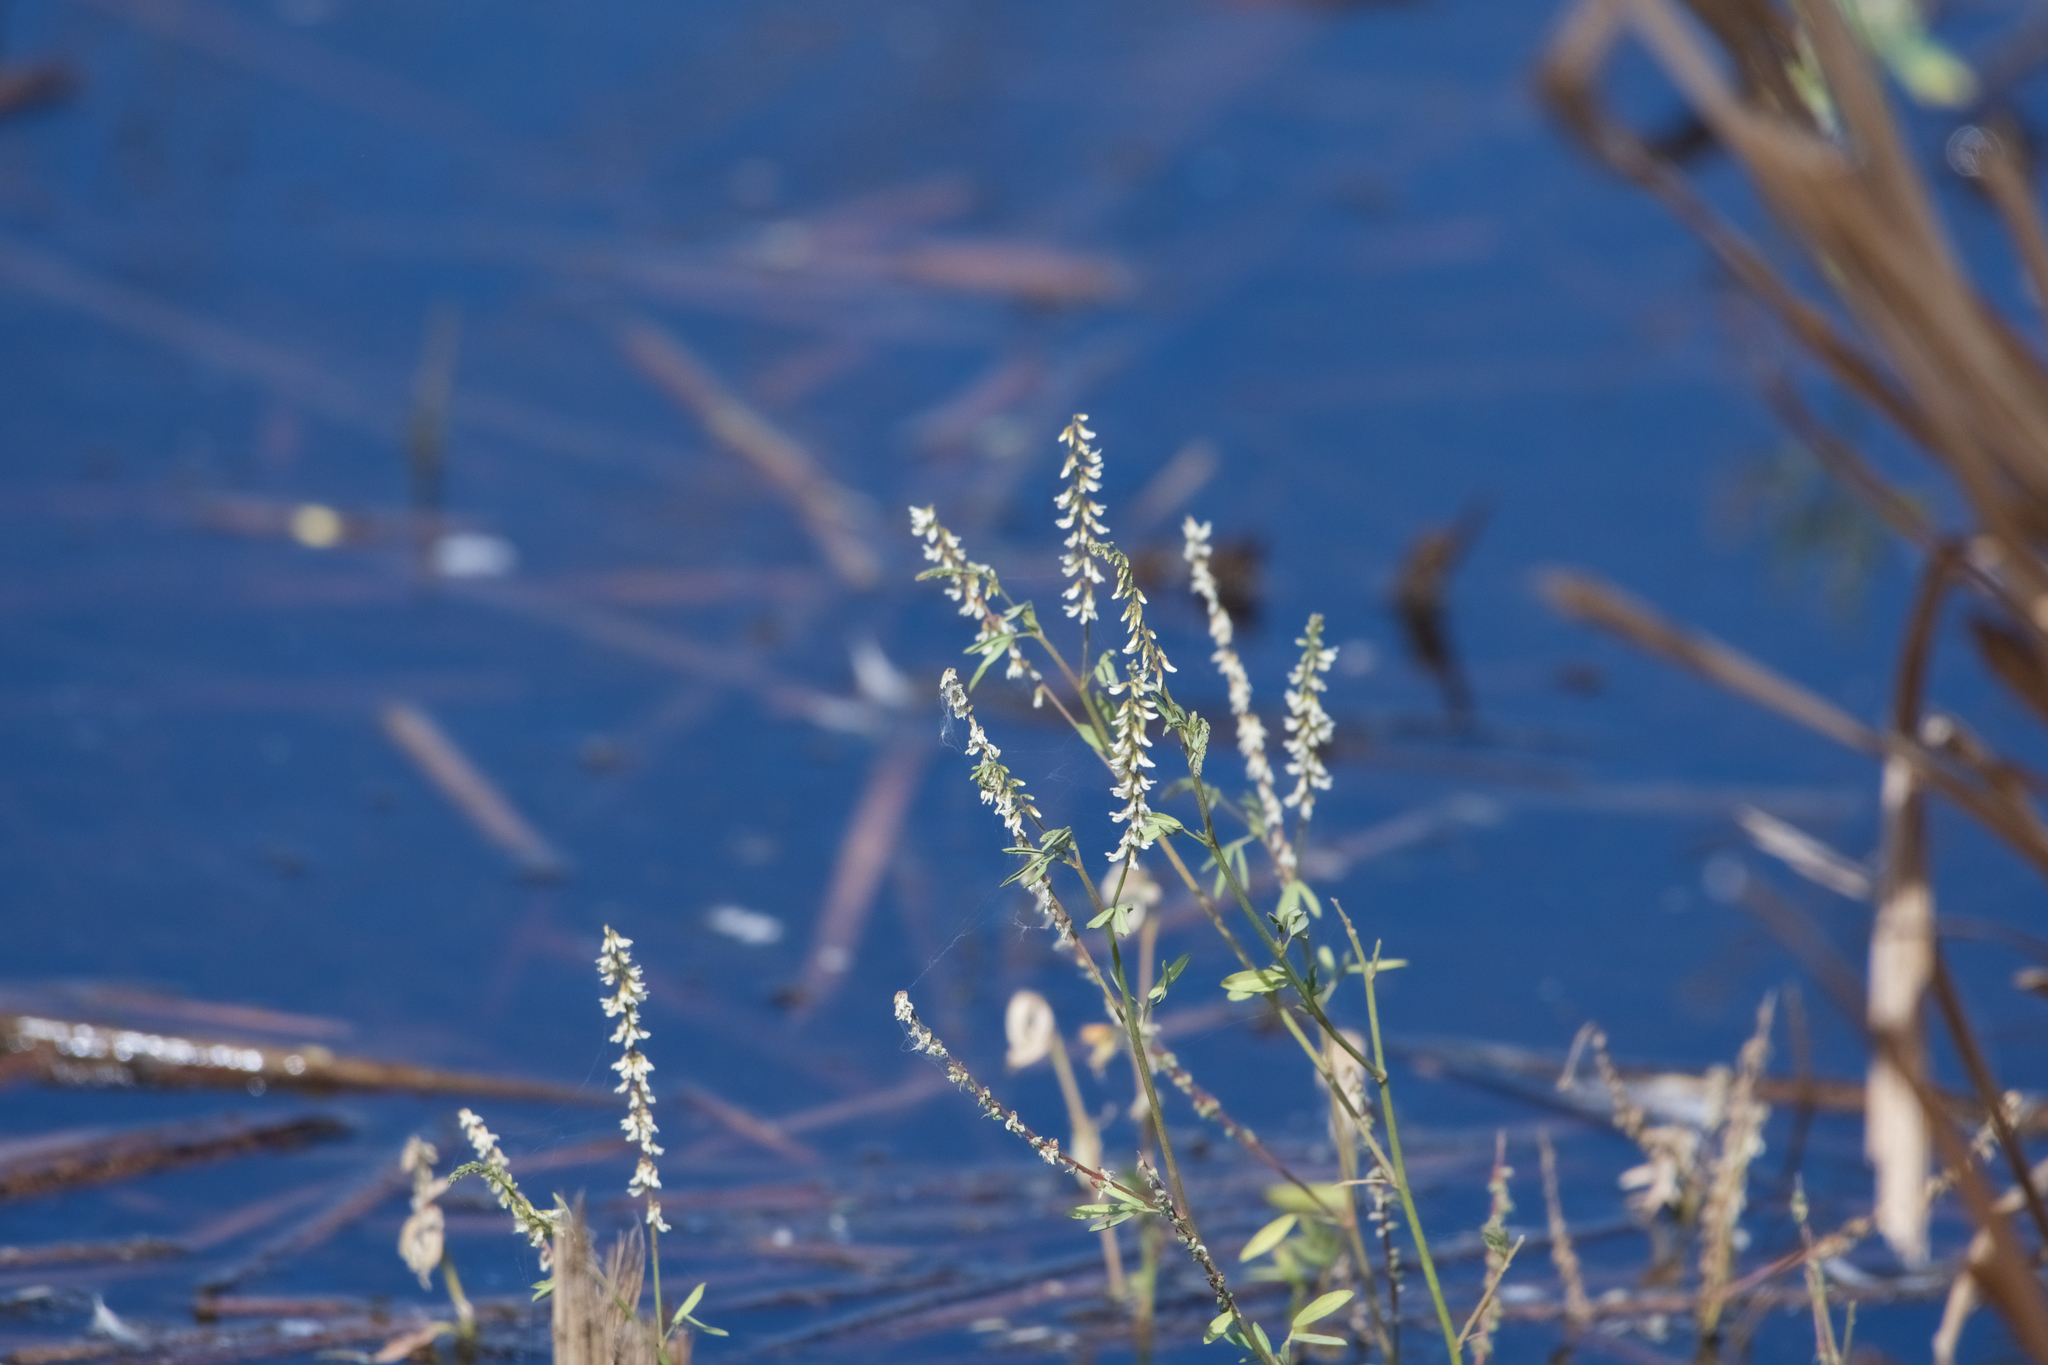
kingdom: Plantae
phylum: Tracheophyta
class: Magnoliopsida
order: Fabales
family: Fabaceae
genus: Melilotus
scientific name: Melilotus albus
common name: White melilot
